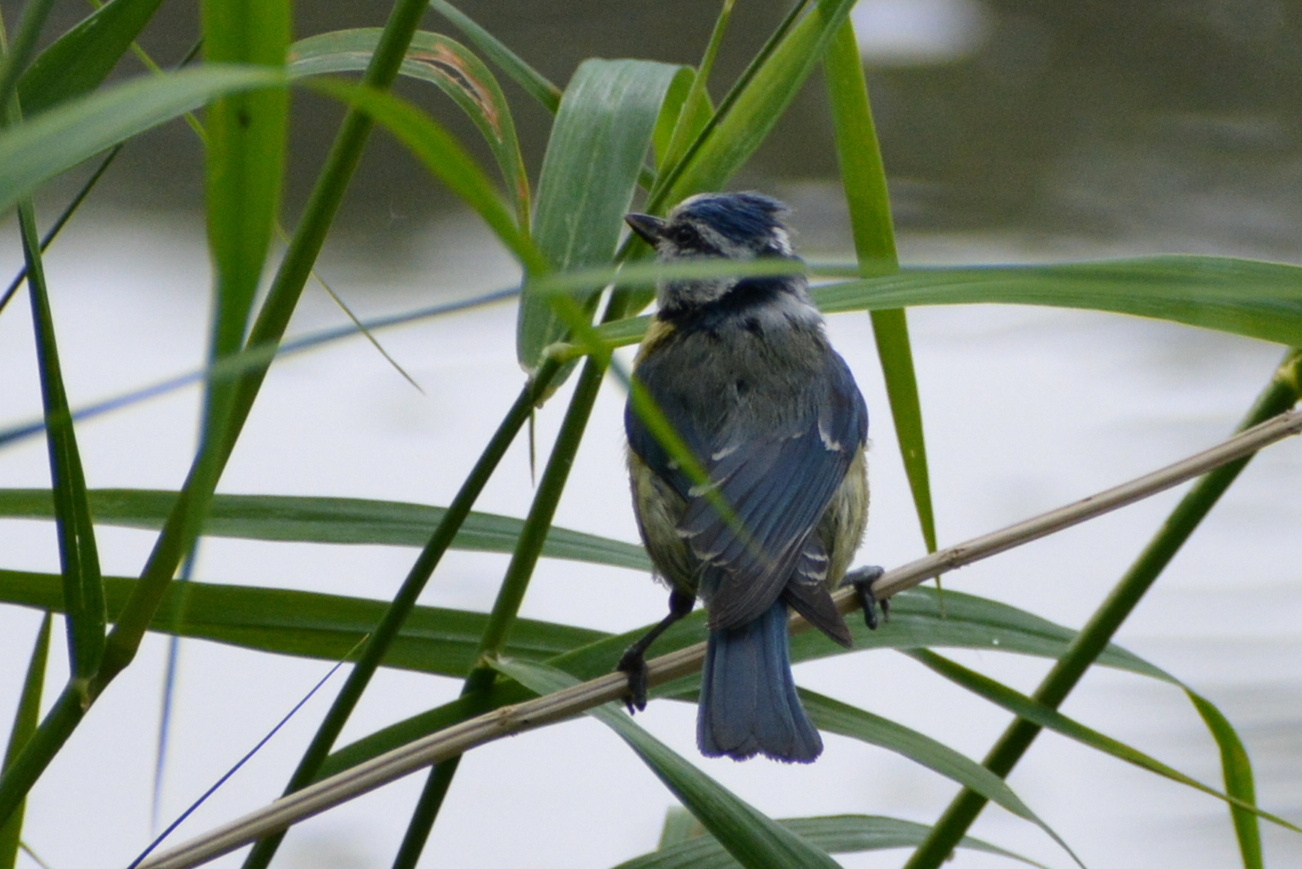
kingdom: Animalia
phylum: Chordata
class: Aves
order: Passeriformes
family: Paridae
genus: Cyanistes
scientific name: Cyanistes caeruleus
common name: Eurasian blue tit
